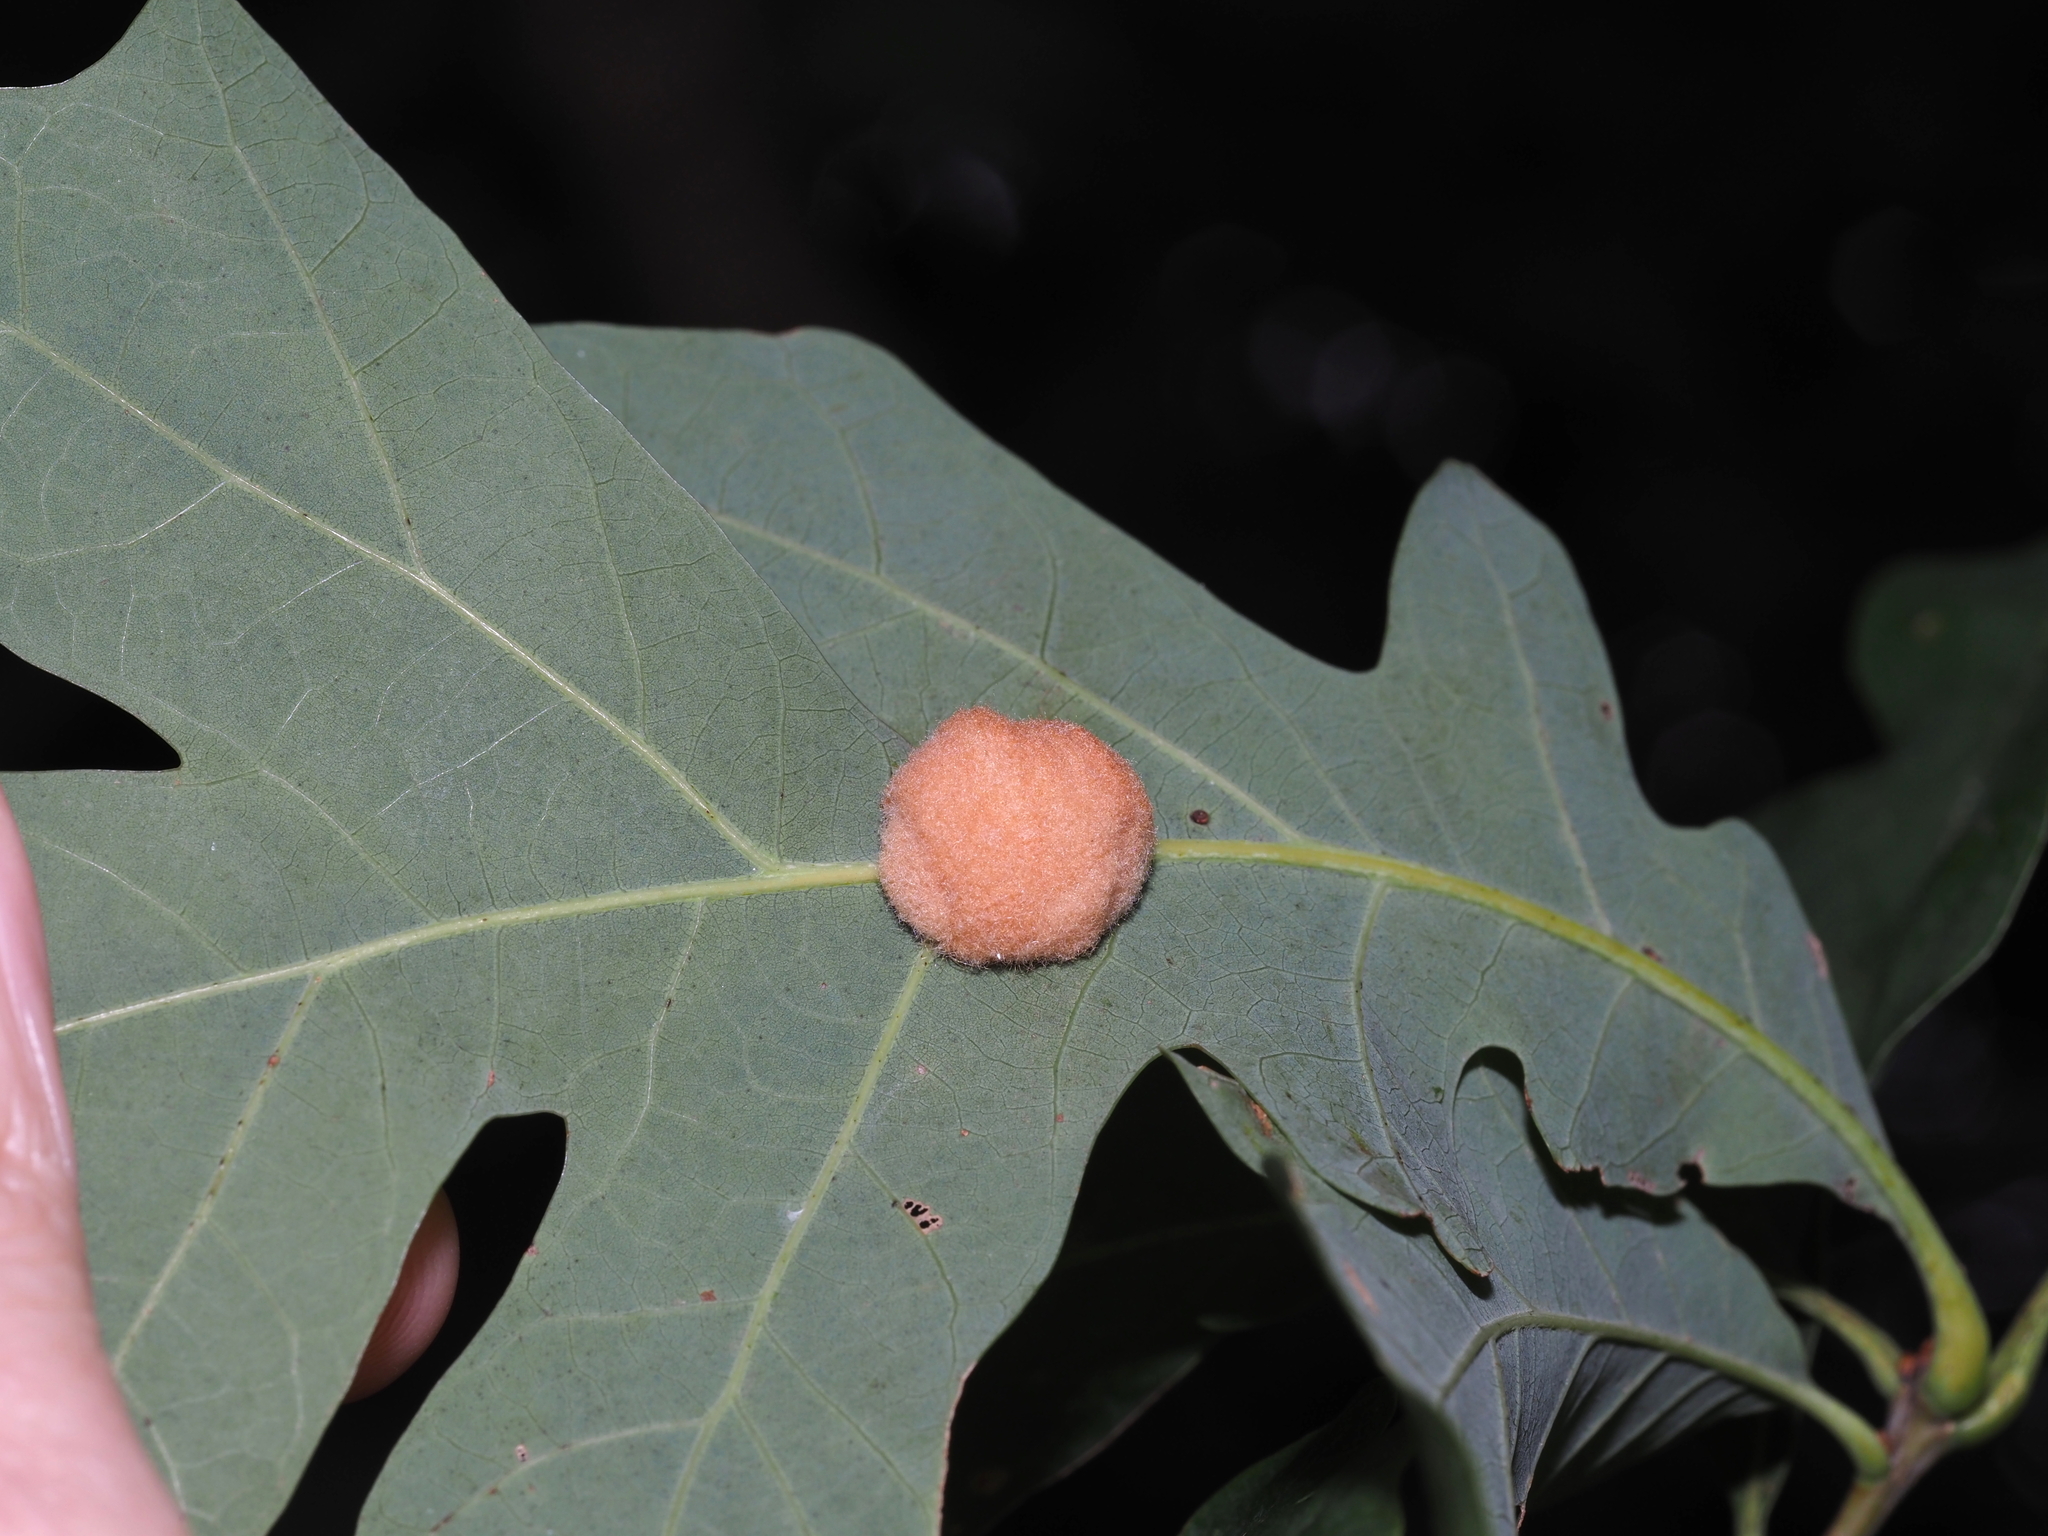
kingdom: Animalia
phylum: Arthropoda
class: Insecta
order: Hymenoptera
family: Cynipidae
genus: Andricus
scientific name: Andricus quercusflocci
